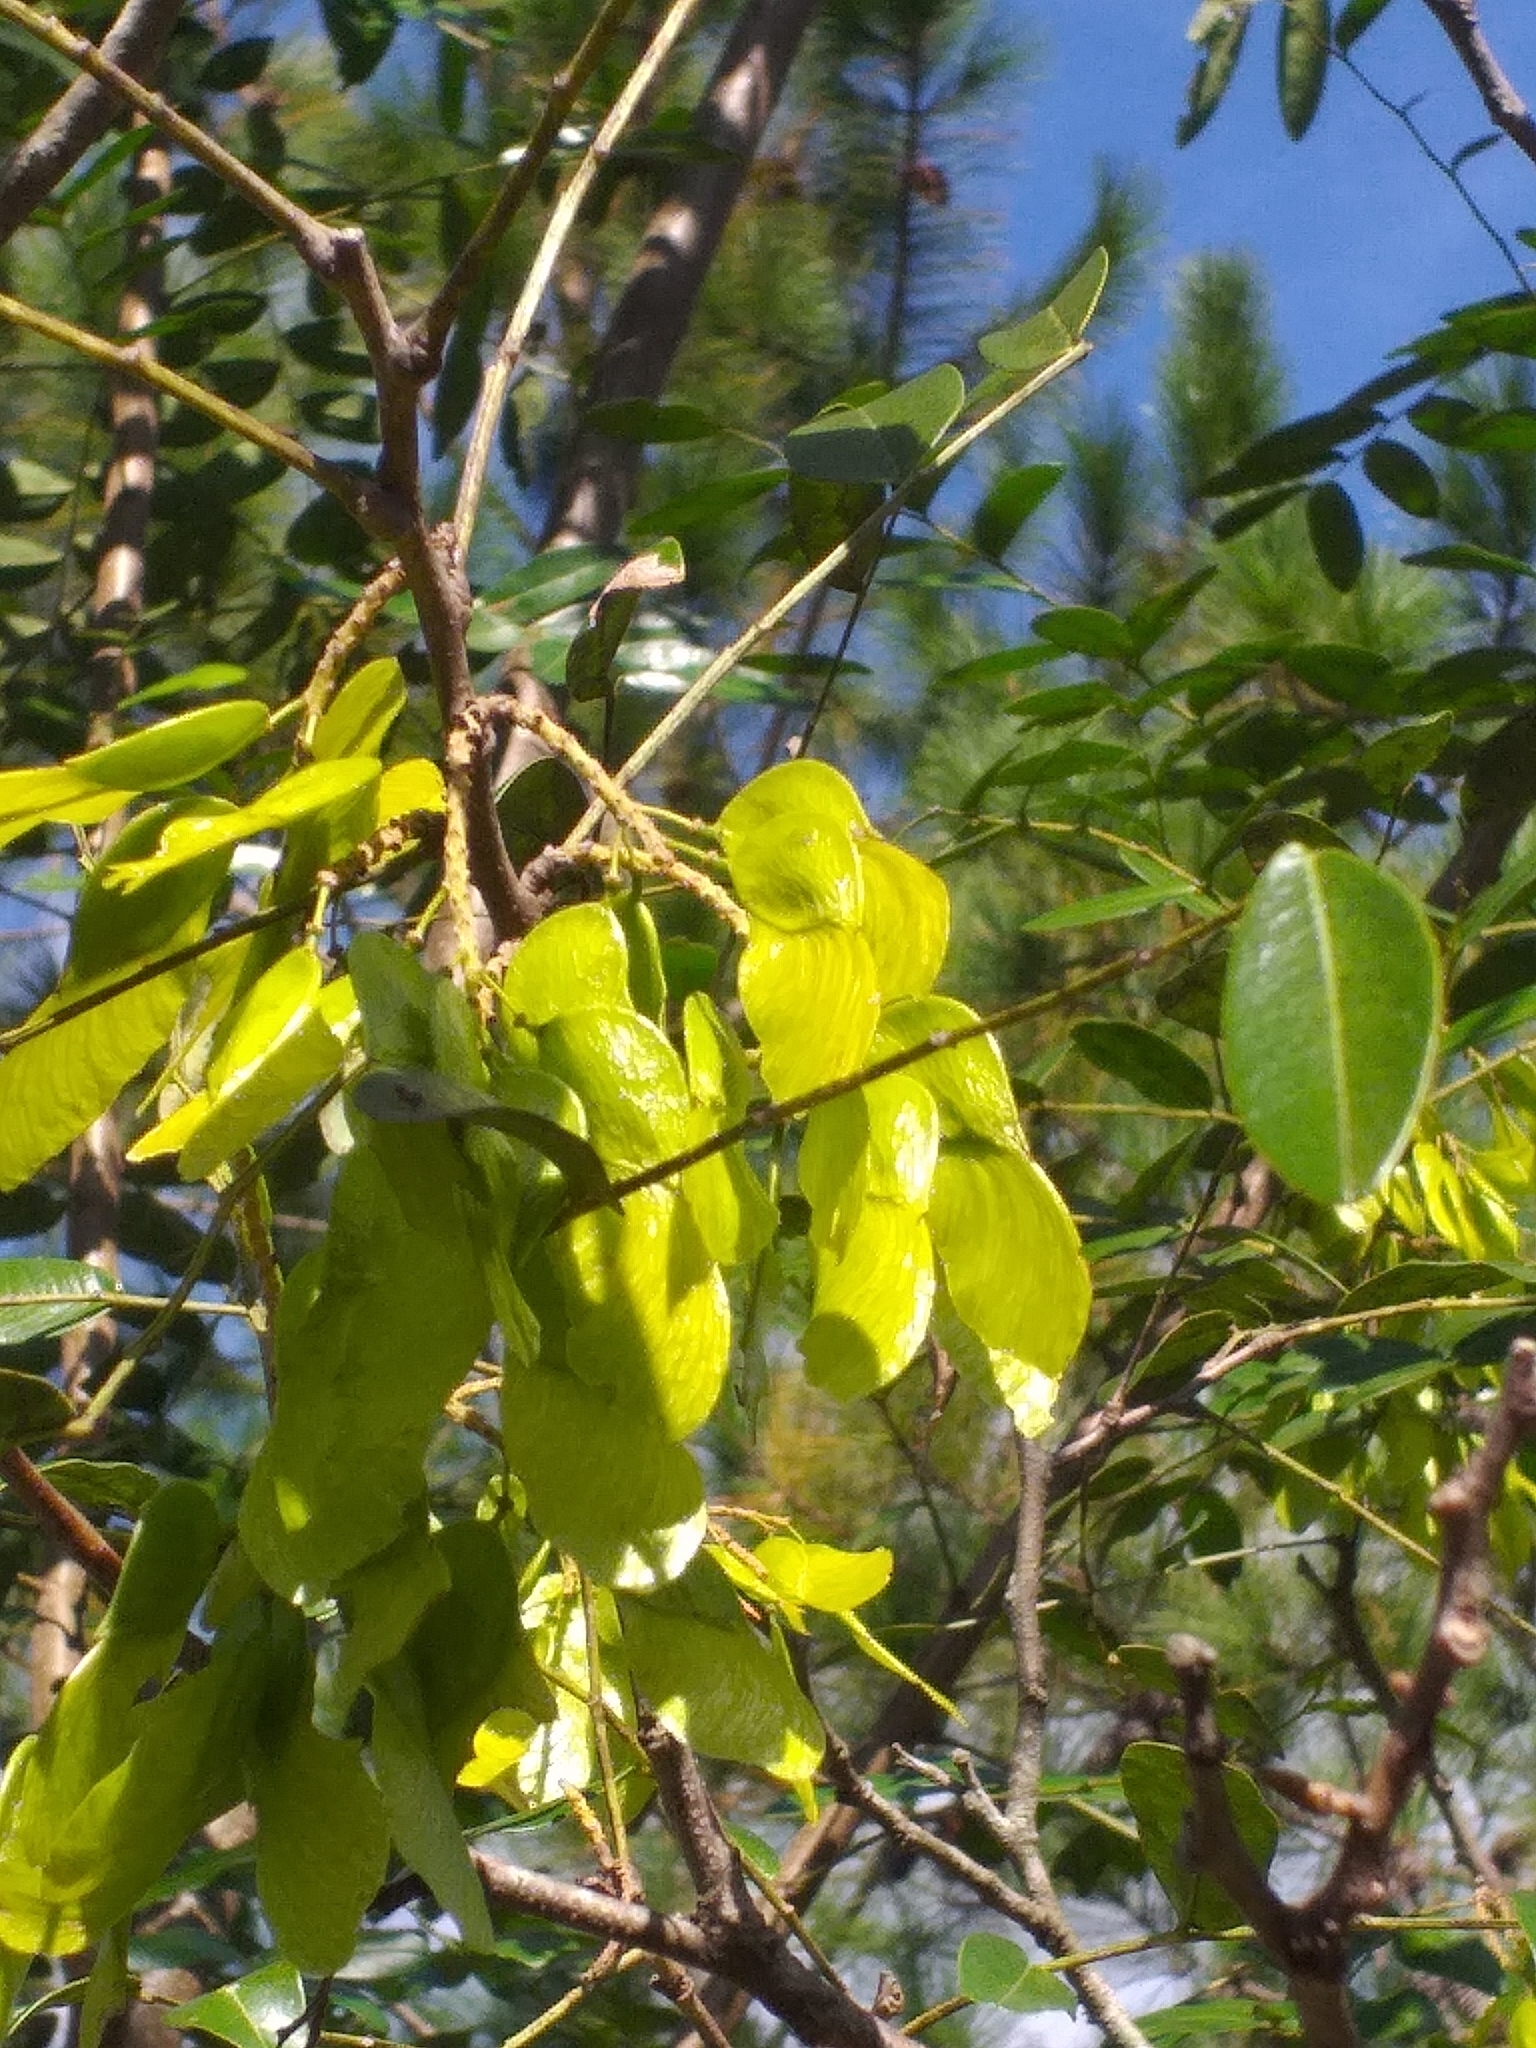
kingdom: Plantae
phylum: Tracheophyta
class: Magnoliopsida
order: Fabales
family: Fabaceae
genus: Pterogyne
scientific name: Pterogyne nitens
